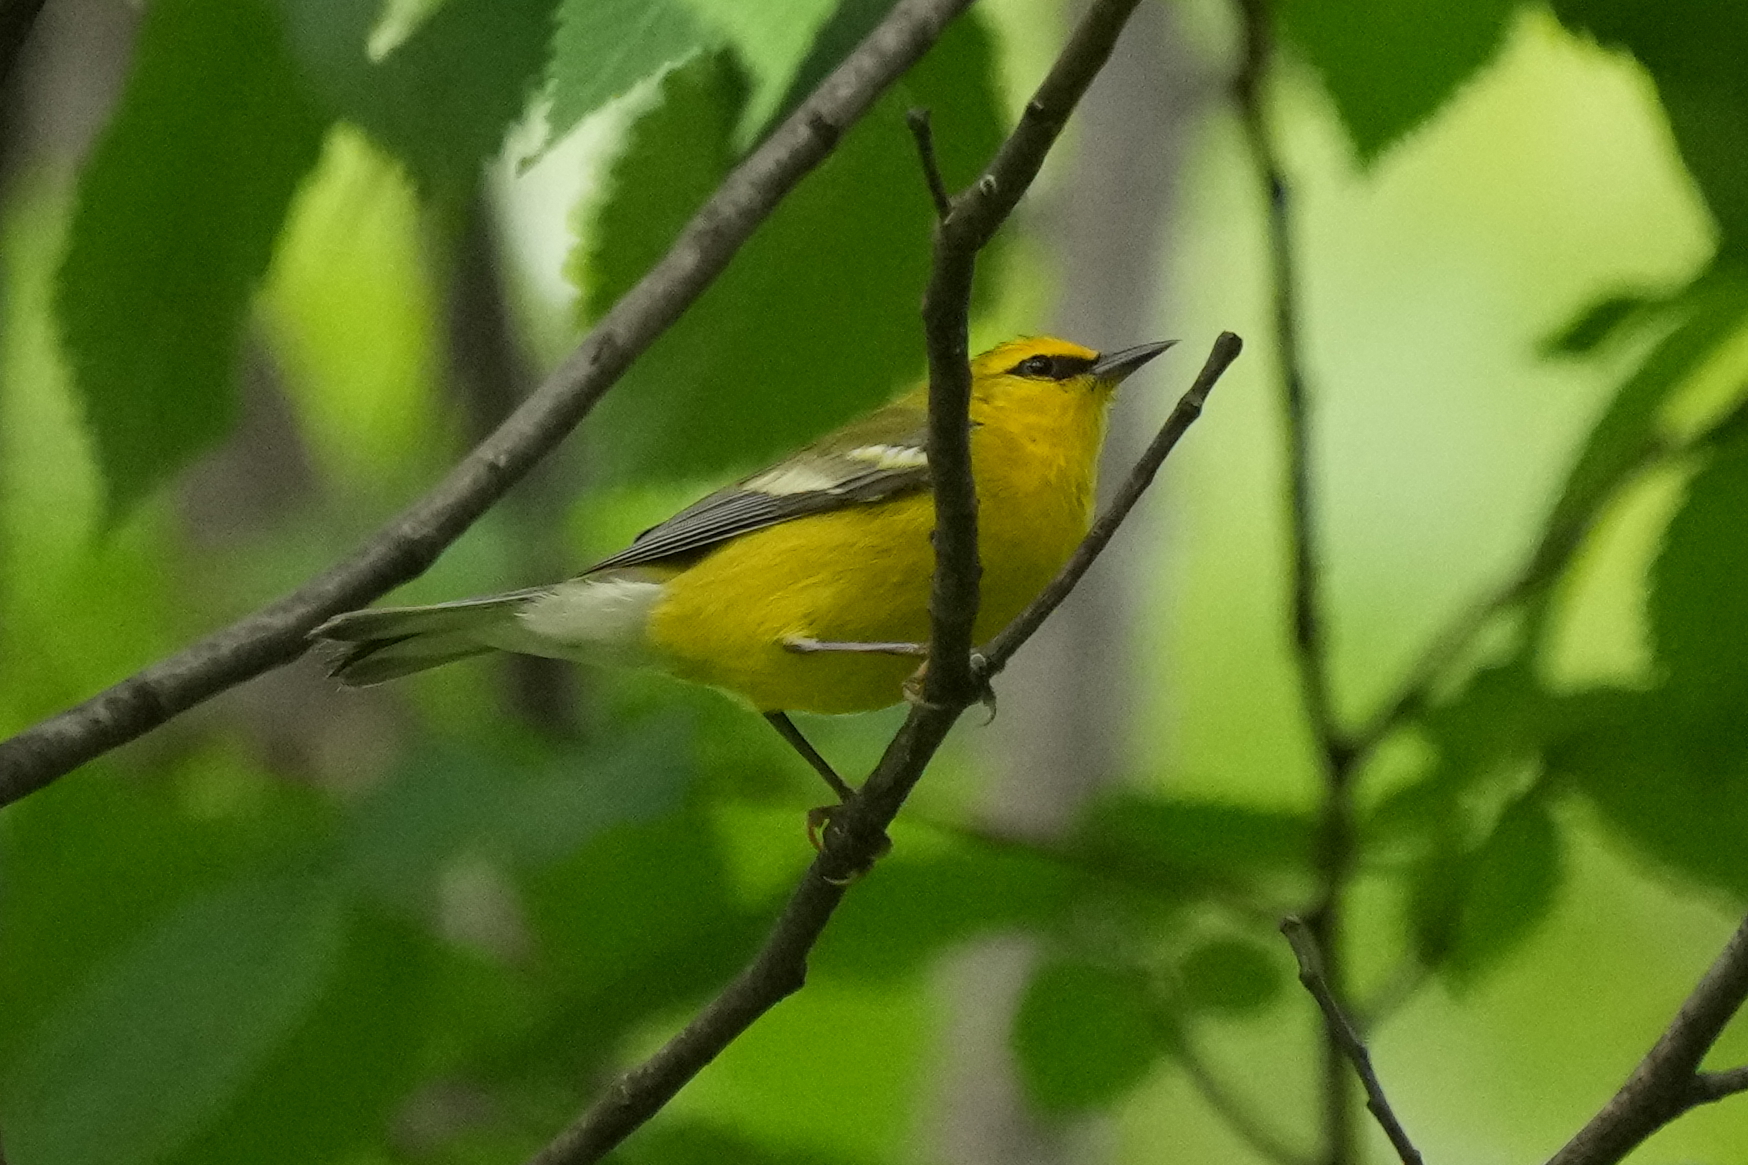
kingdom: Animalia
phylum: Chordata
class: Aves
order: Passeriformes
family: Parulidae
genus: Vermivora
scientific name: Vermivora cyanoptera
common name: Blue-winged warbler
